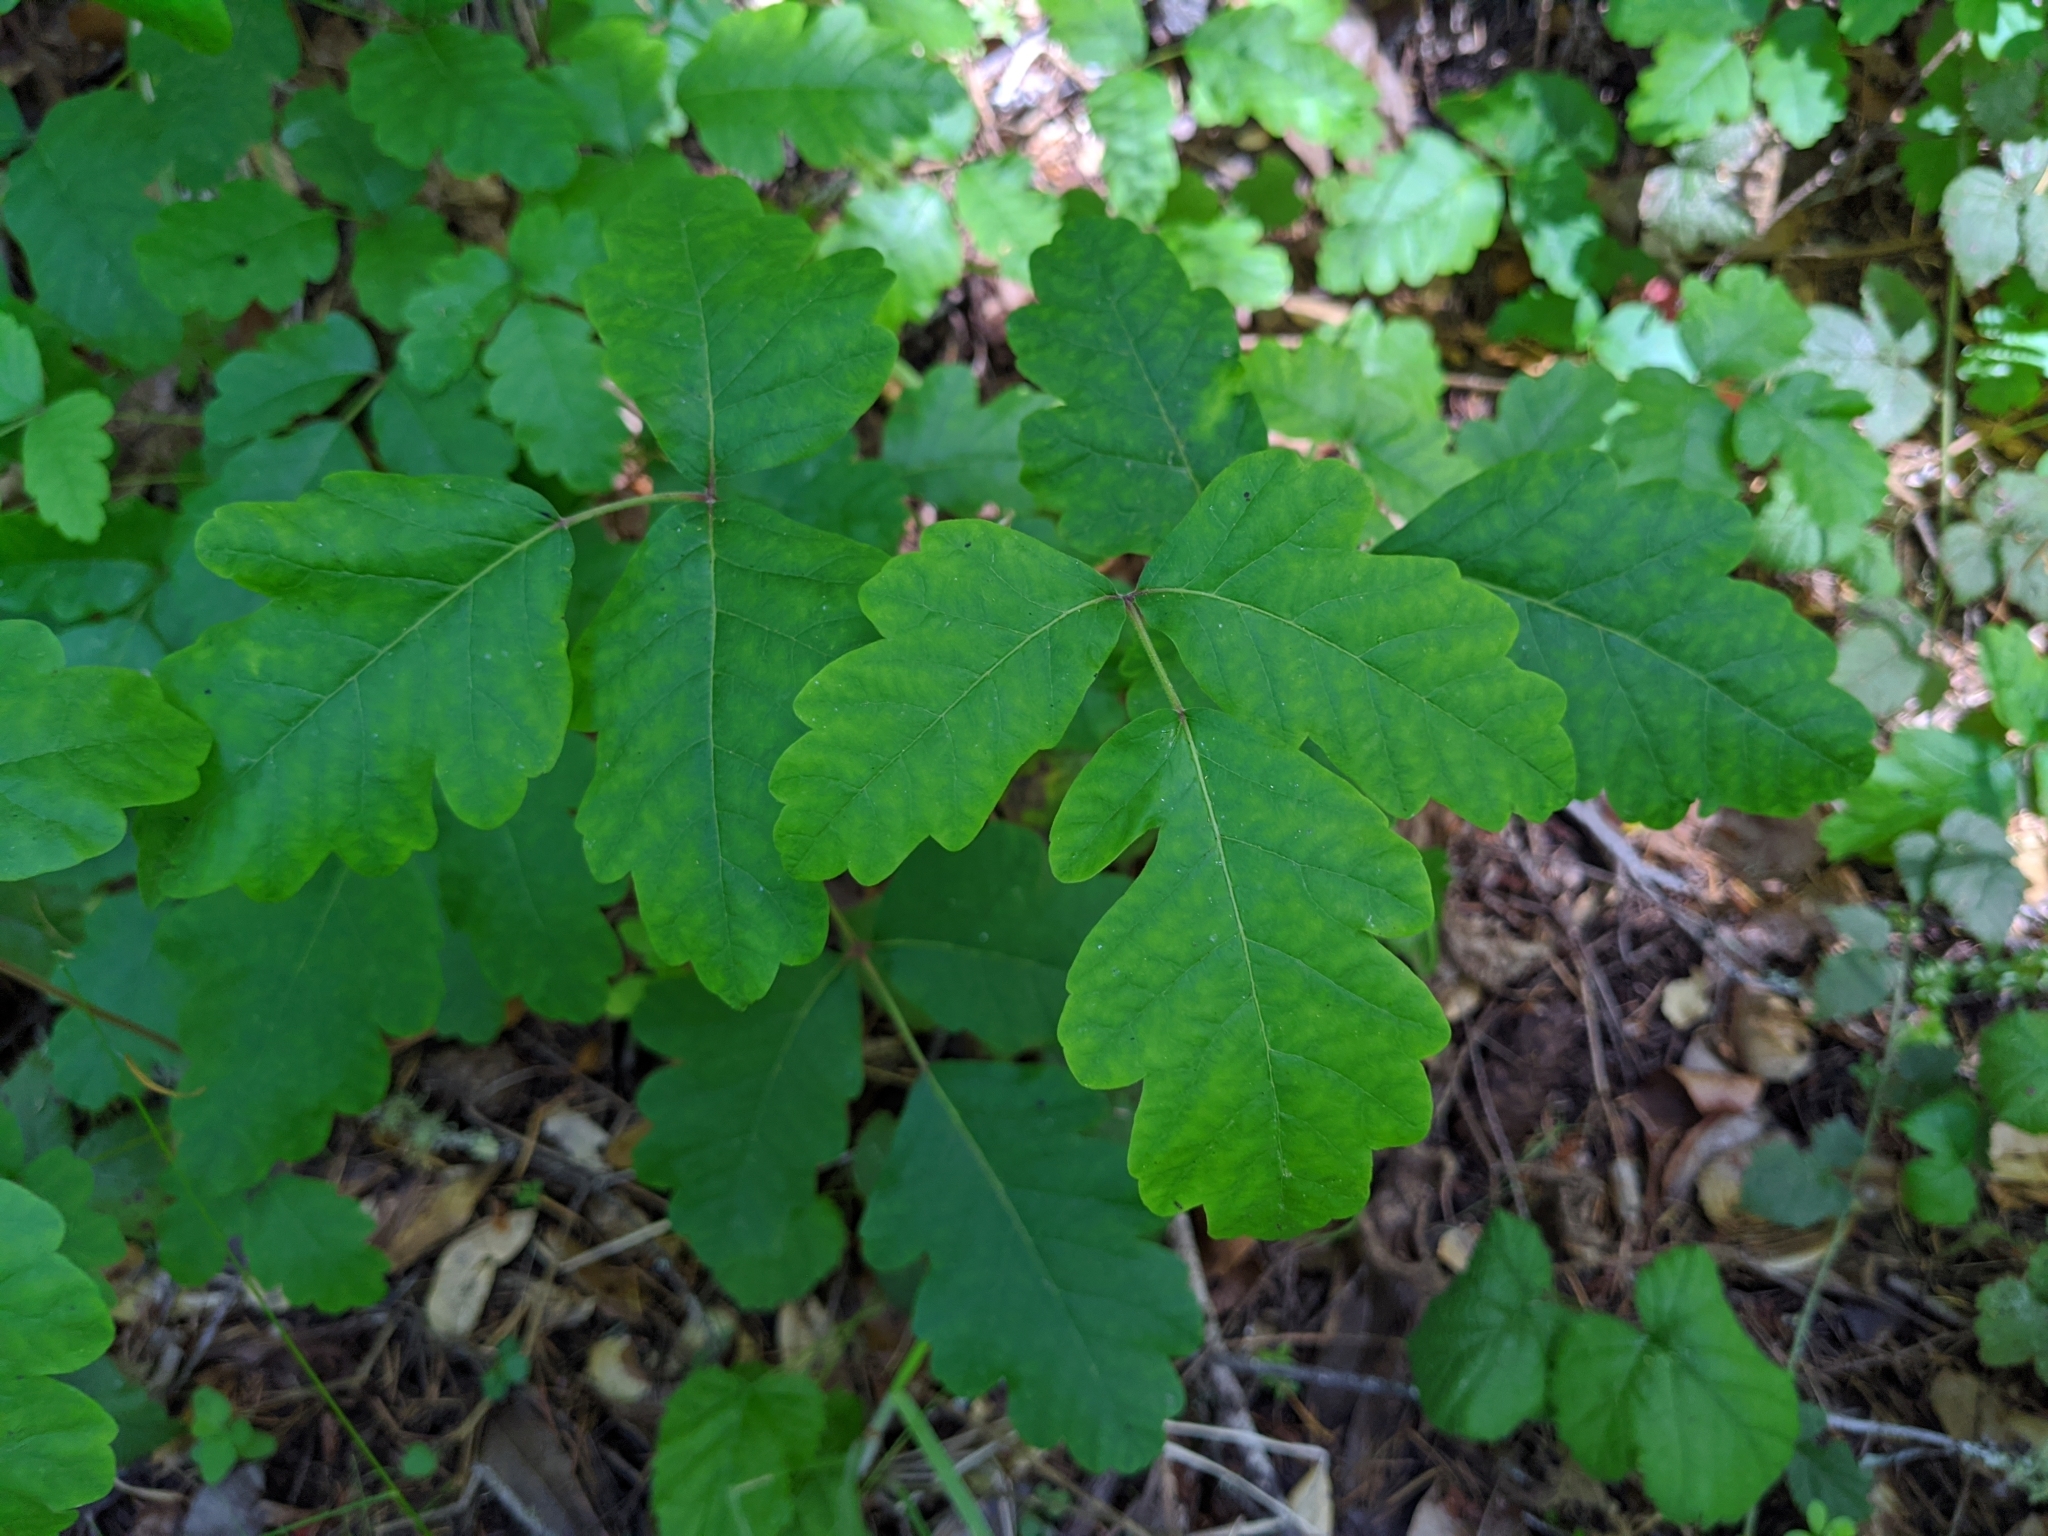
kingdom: Plantae
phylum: Tracheophyta
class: Magnoliopsida
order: Sapindales
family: Anacardiaceae
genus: Toxicodendron
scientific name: Toxicodendron diversilobum
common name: Pacific poison-oak
